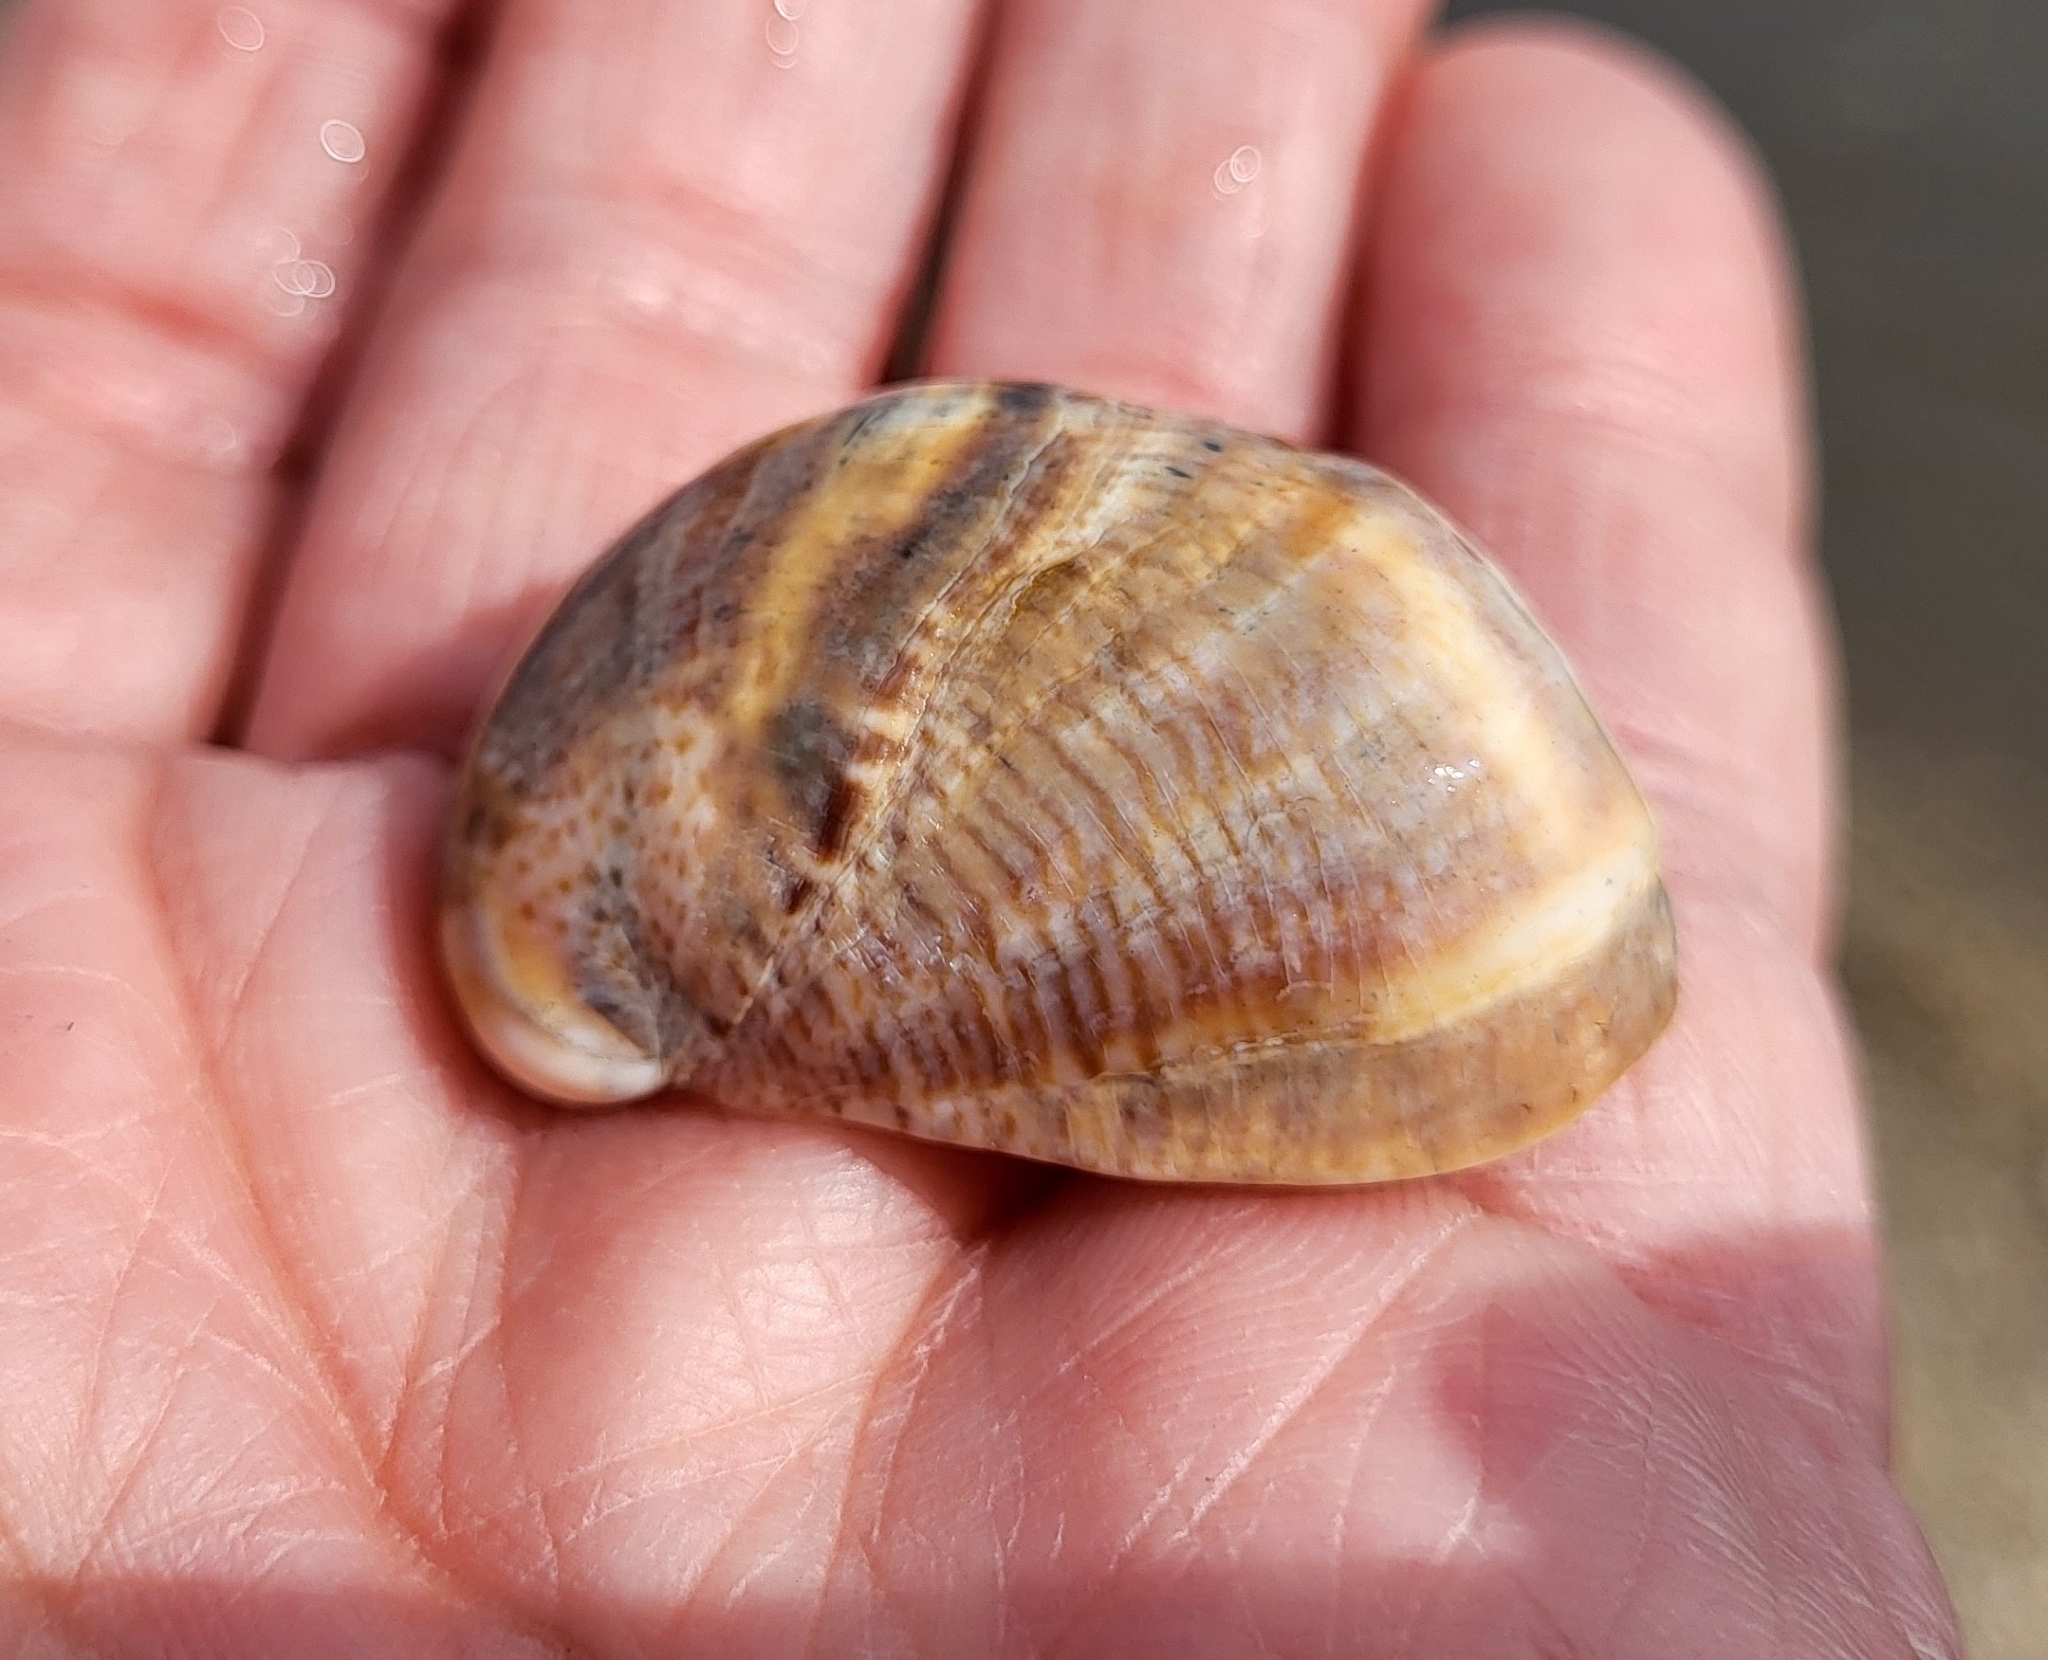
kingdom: Animalia
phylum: Mollusca
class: Gastropoda
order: Littorinimorpha
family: Calyptraeidae
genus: Crepidula
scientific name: Crepidula fornicata
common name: Slipper limpet
